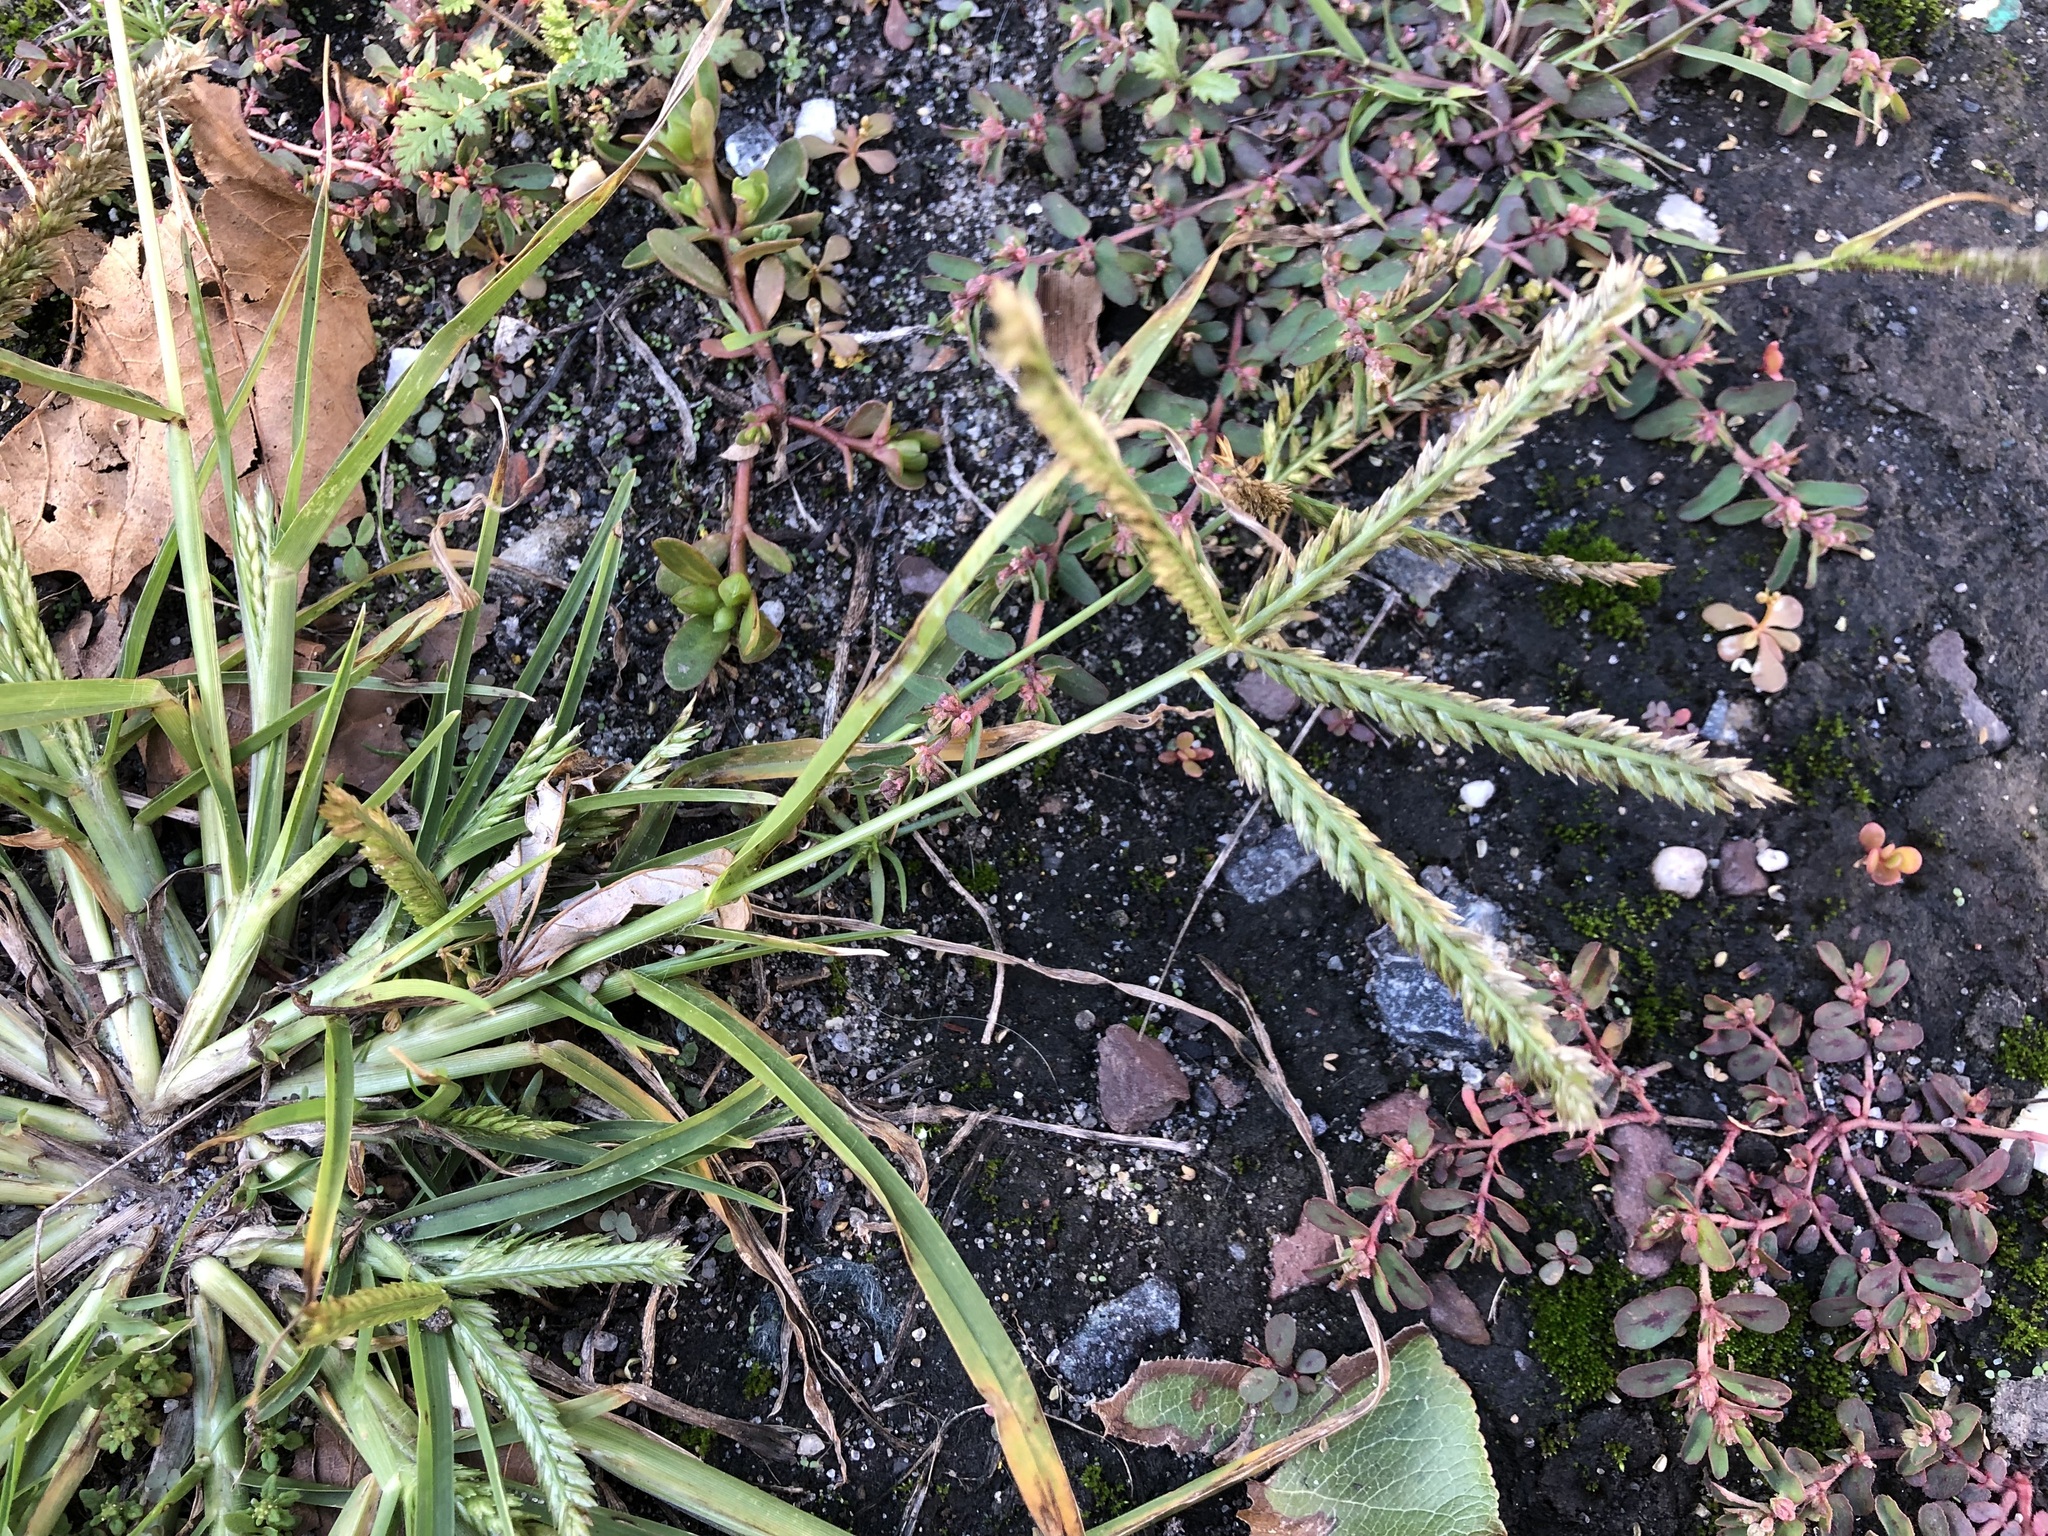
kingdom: Plantae
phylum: Tracheophyta
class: Liliopsida
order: Poales
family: Poaceae
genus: Eleusine
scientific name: Eleusine indica
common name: Yard-grass
